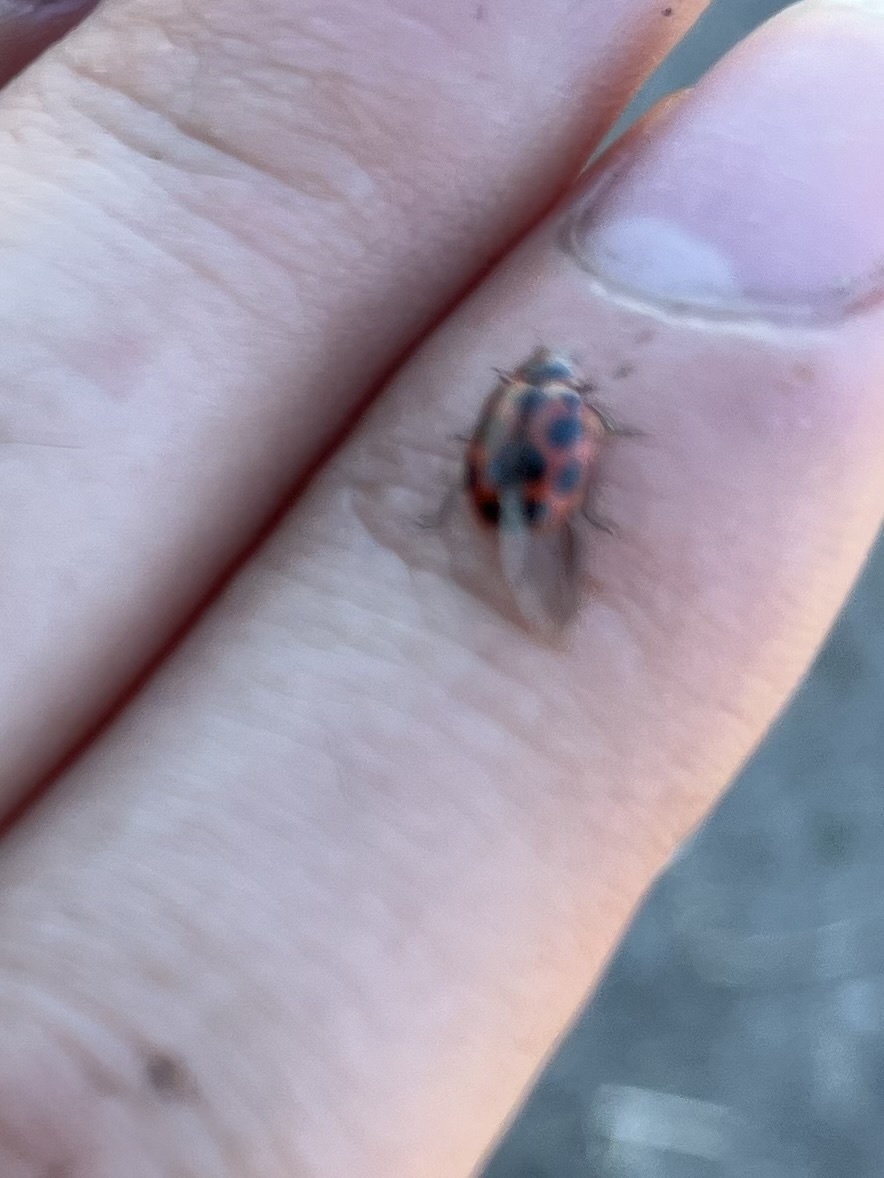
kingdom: Animalia
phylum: Arthropoda
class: Insecta
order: Coleoptera
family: Coccinellidae
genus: Naemia
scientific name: Naemia seriata
